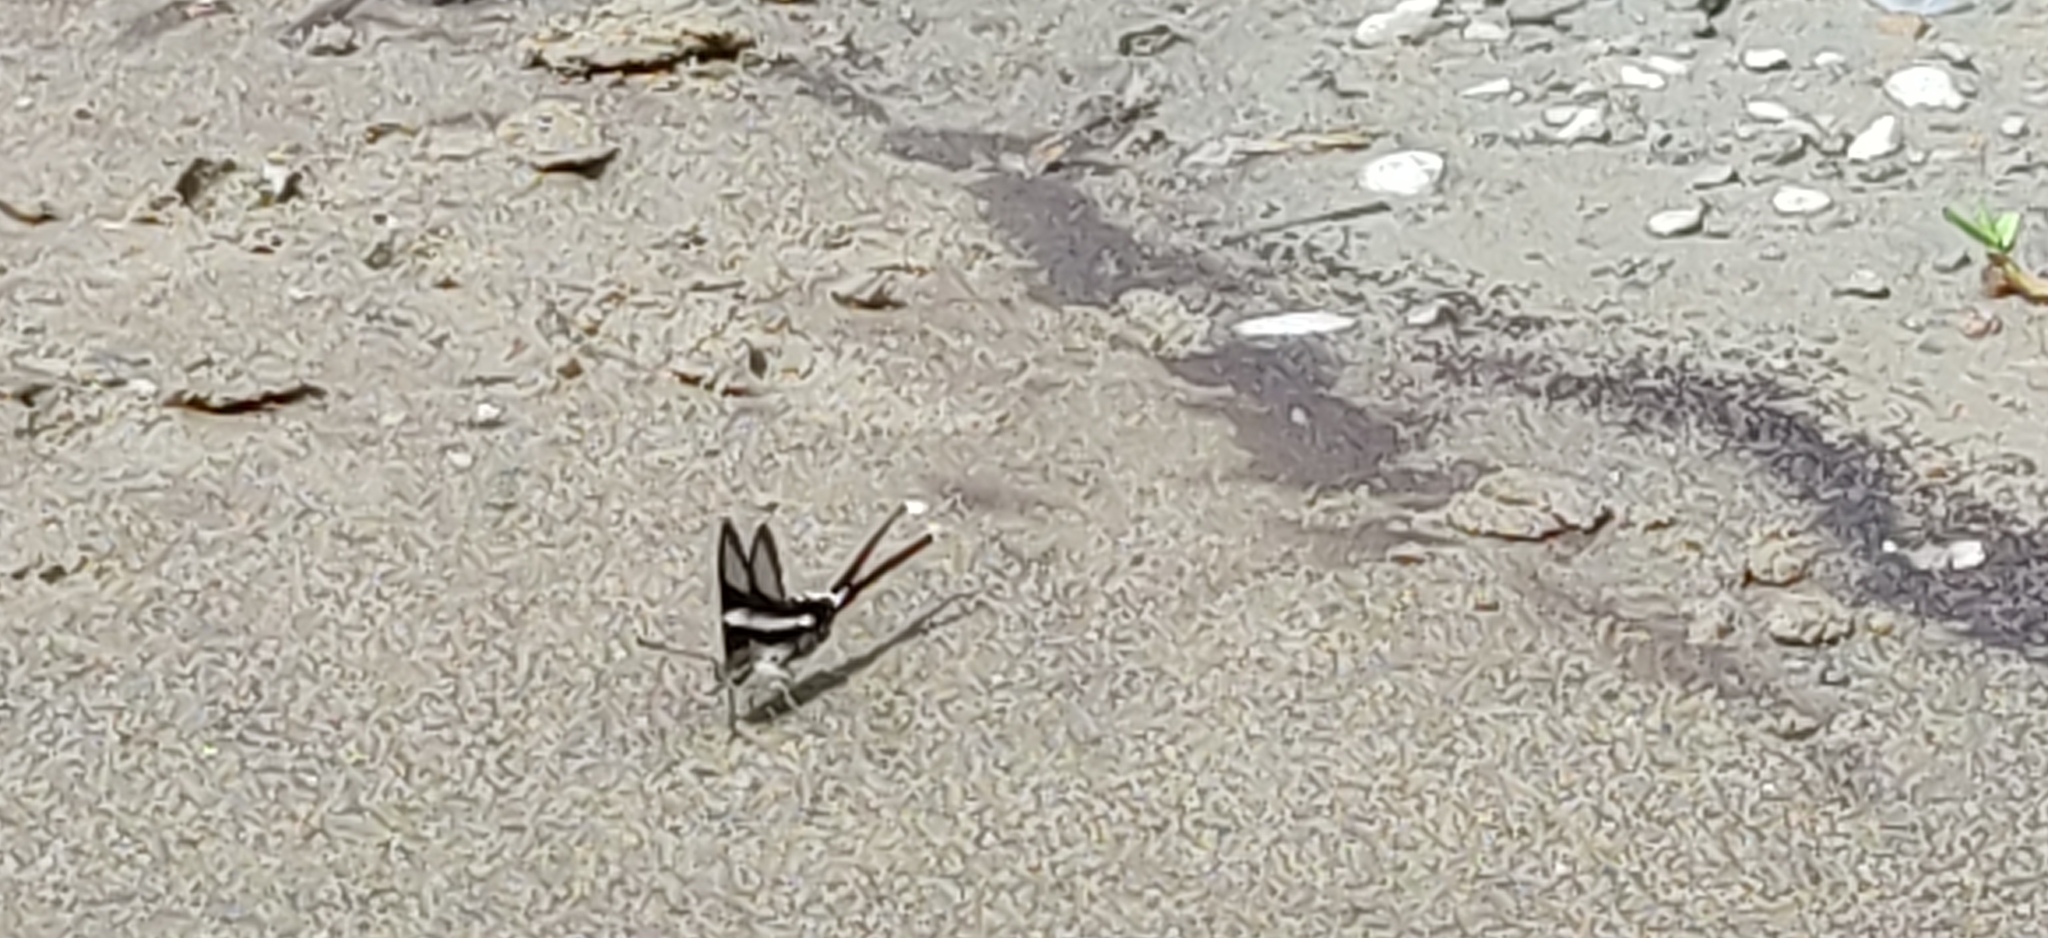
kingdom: Animalia
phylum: Arthropoda
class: Insecta
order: Lepidoptera
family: Papilionidae
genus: Lamproptera
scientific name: Lamproptera curius
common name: White dragontail
